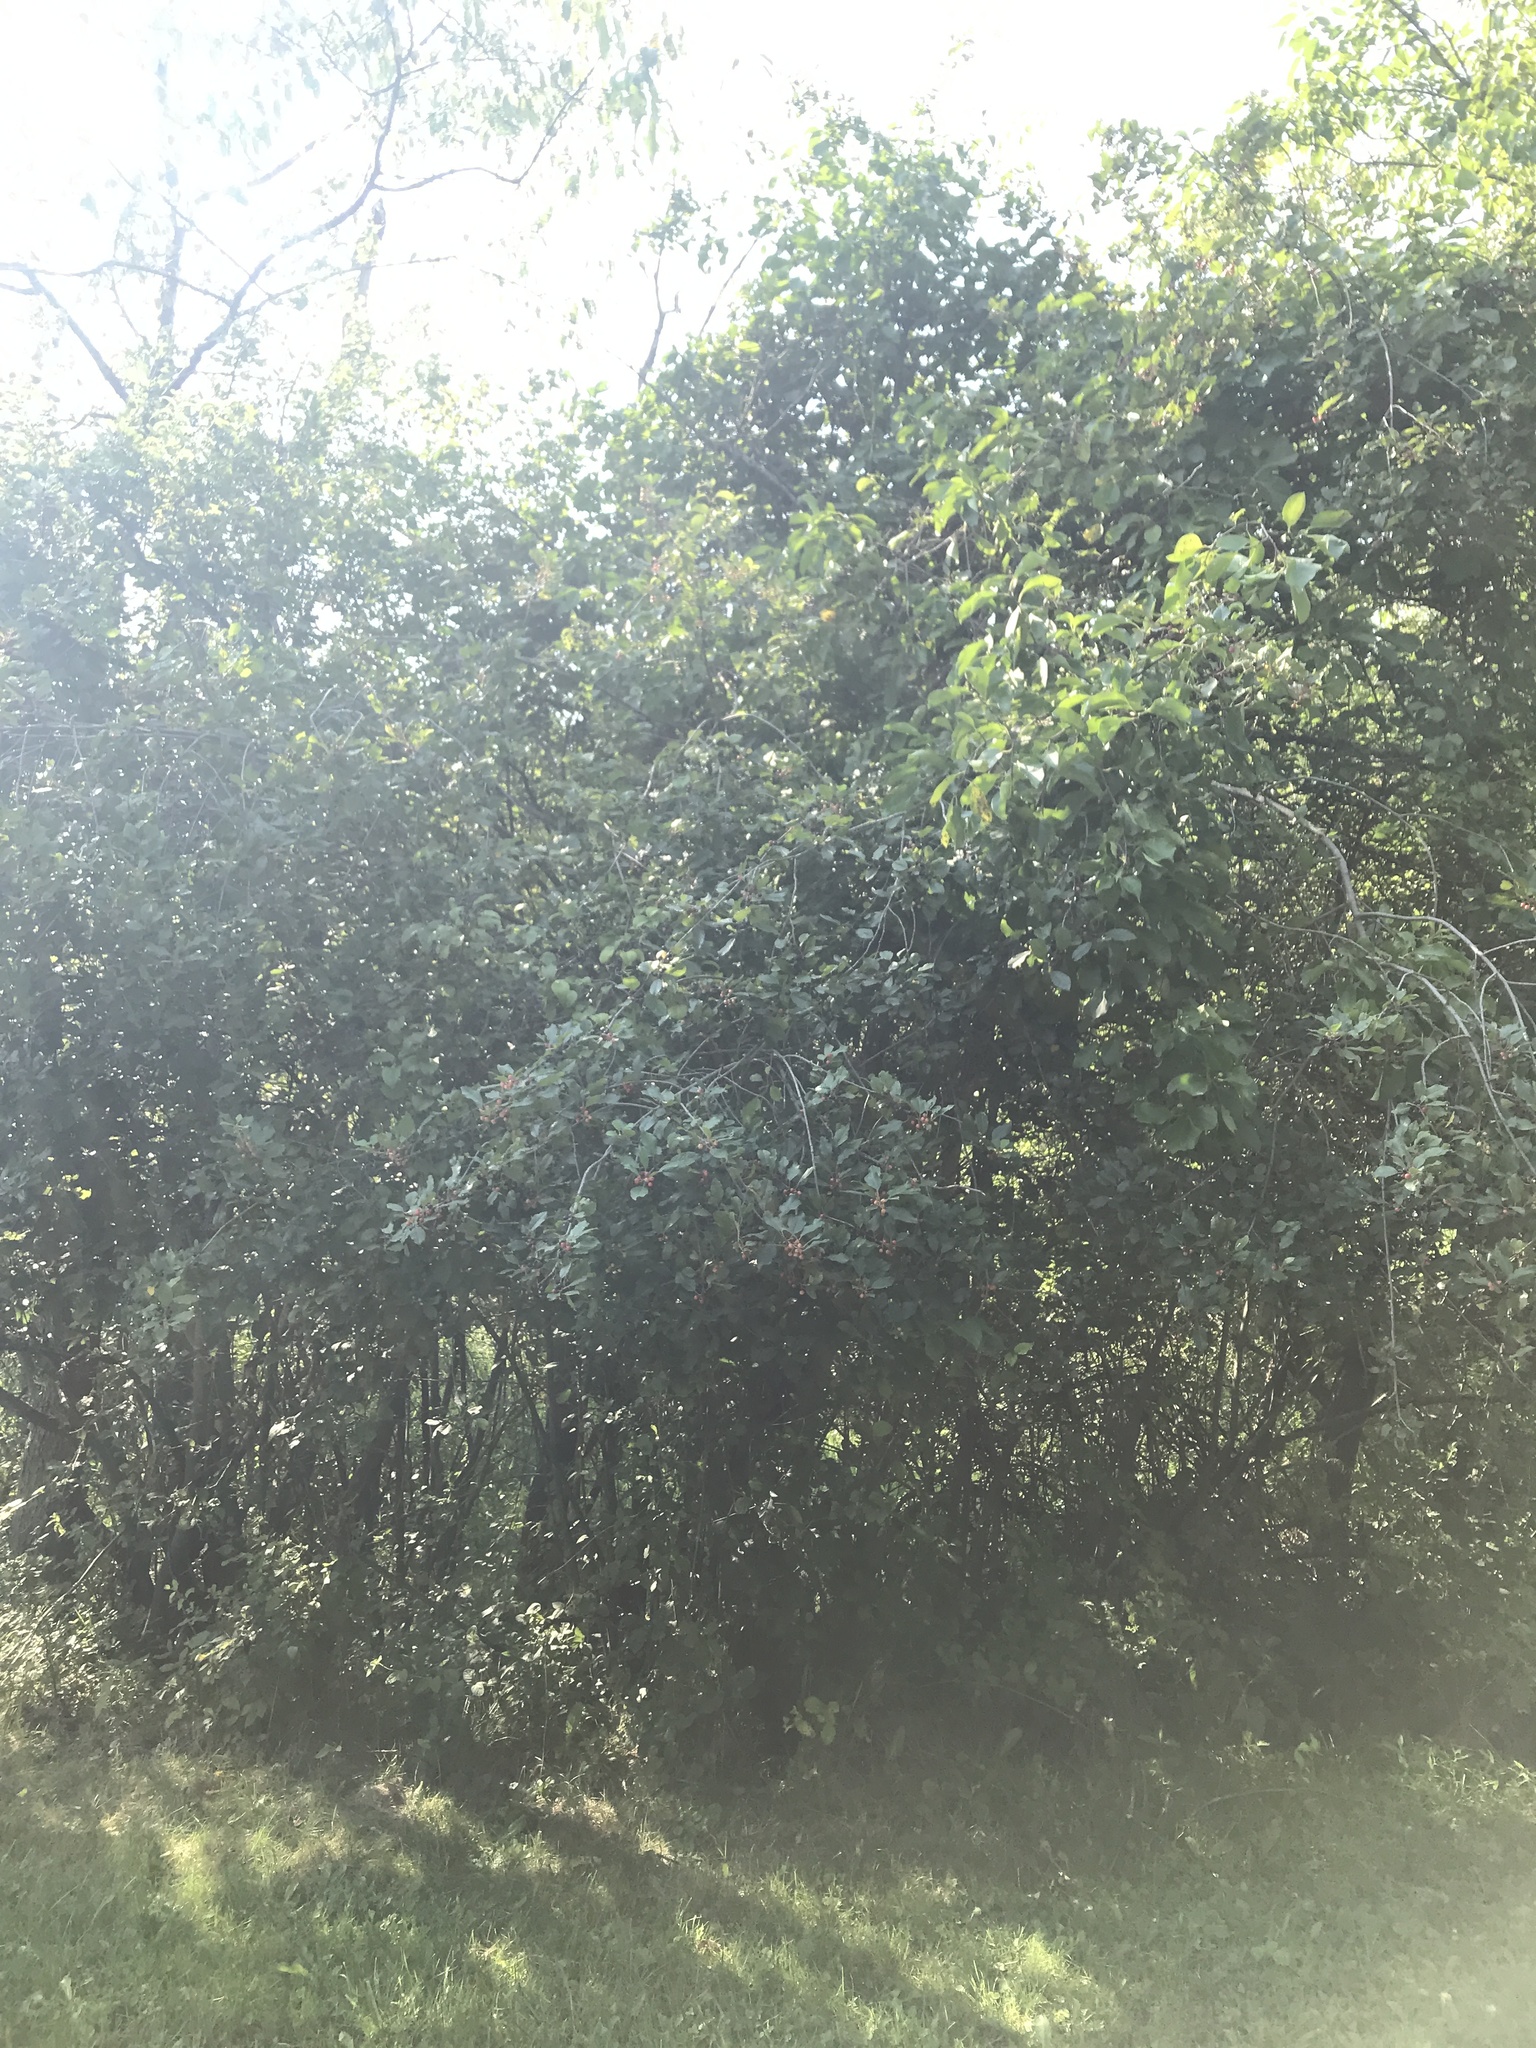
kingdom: Plantae
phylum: Tracheophyta
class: Magnoliopsida
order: Rosales
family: Rhamnaceae
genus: Frangula
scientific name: Frangula alnus
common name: Alder buckthorn
